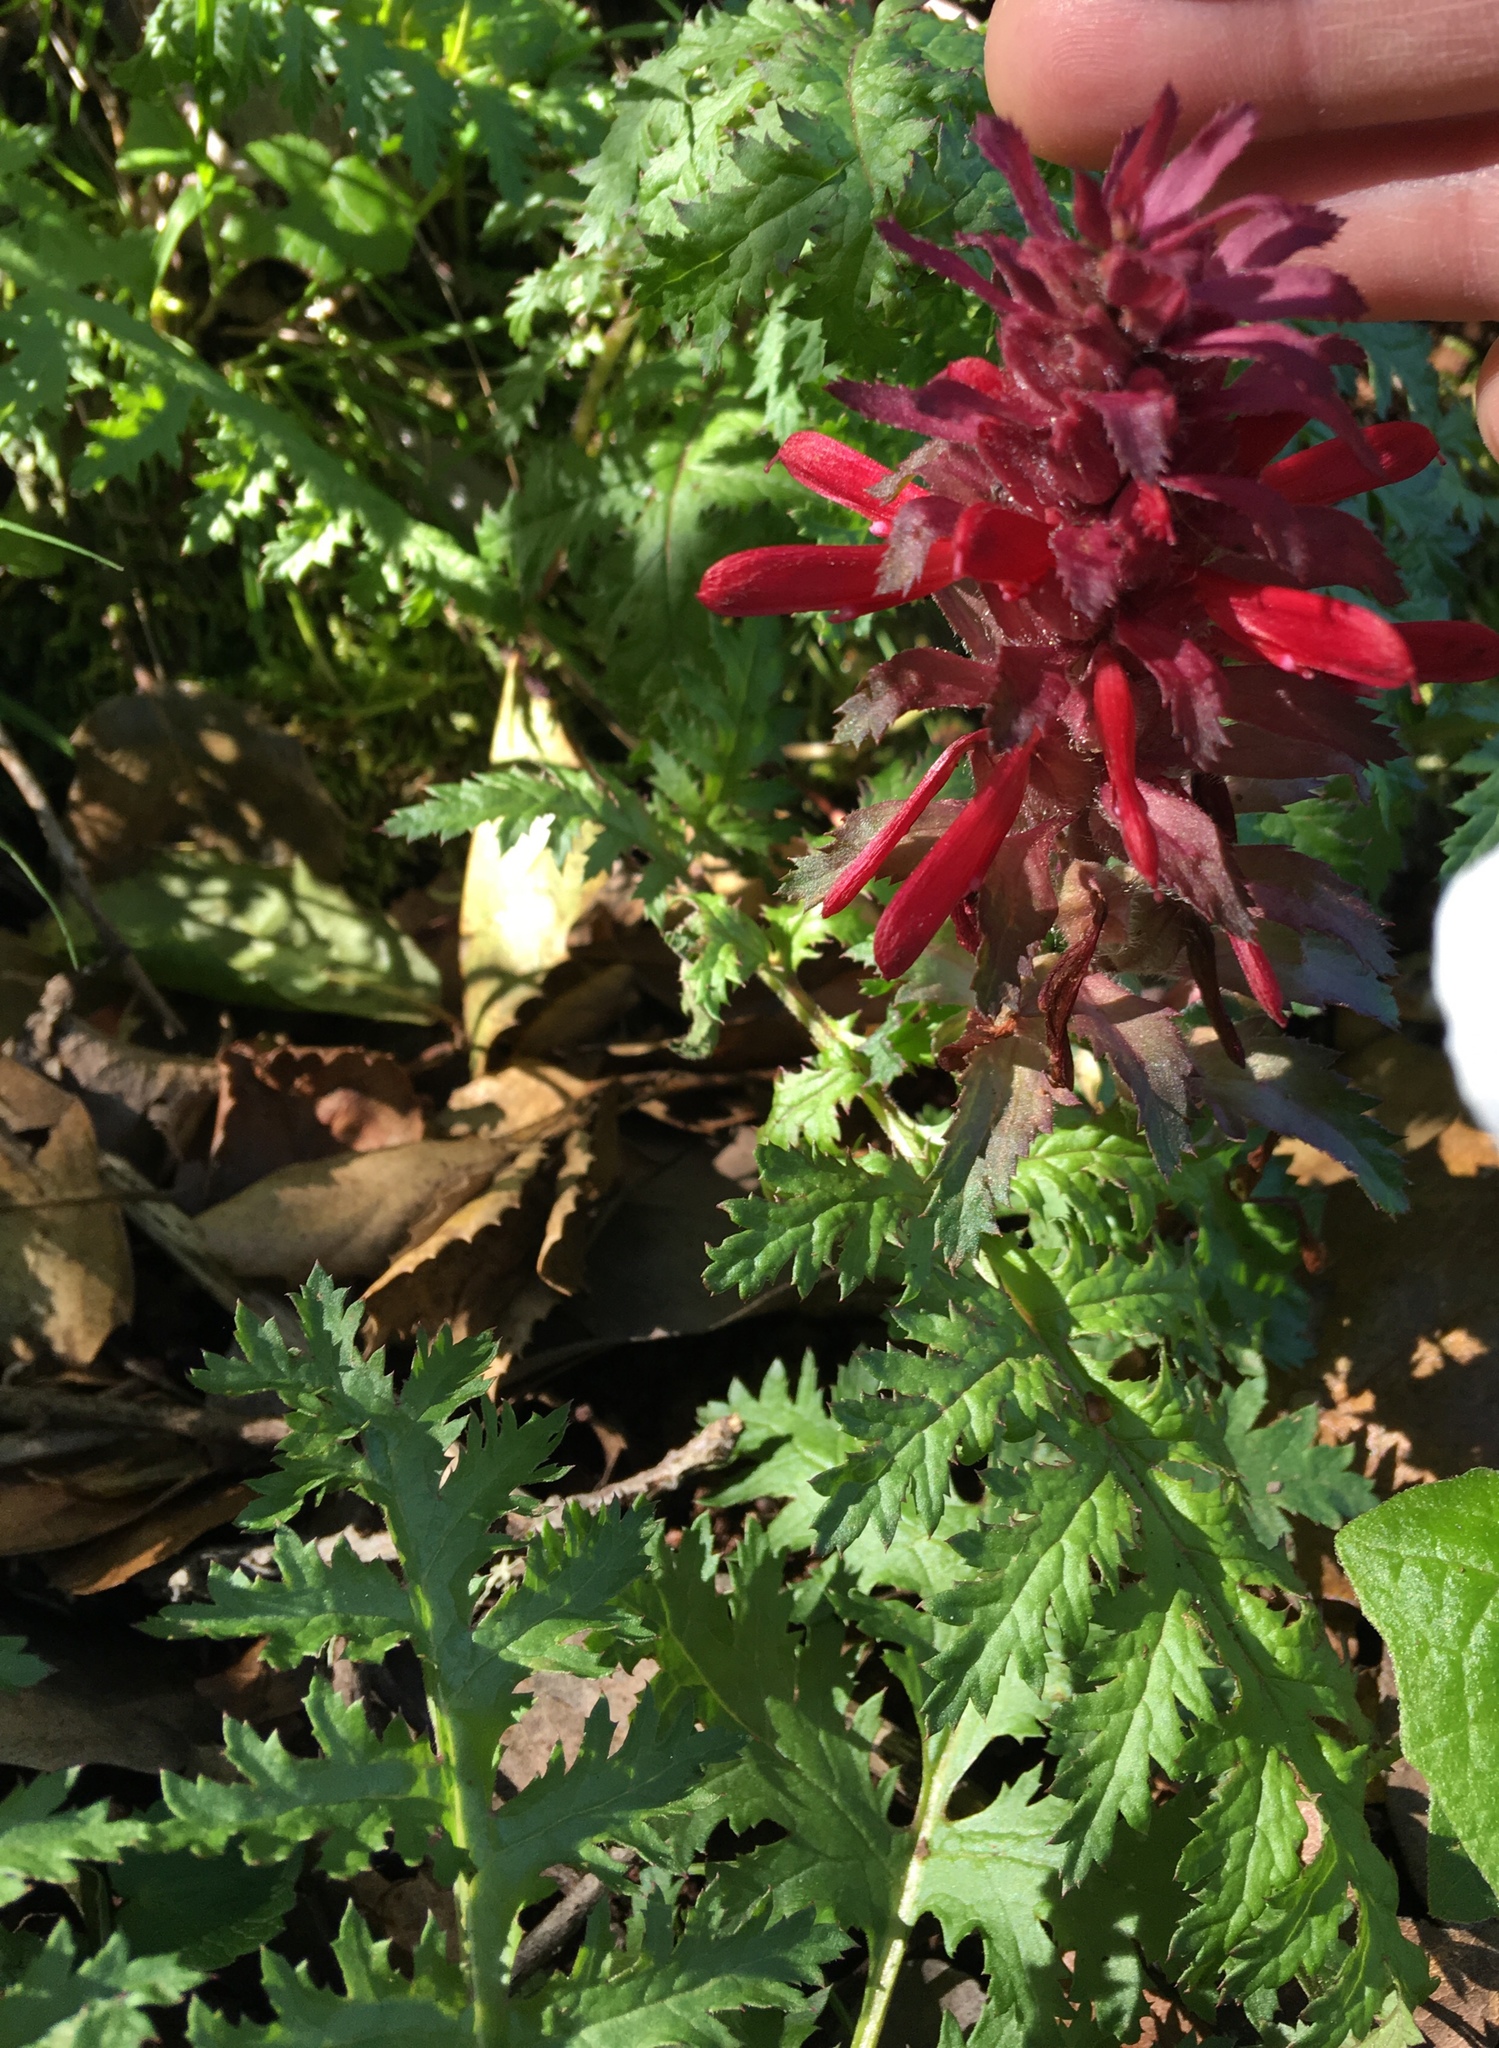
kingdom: Plantae
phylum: Tracheophyta
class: Magnoliopsida
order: Lamiales
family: Orobanchaceae
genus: Pedicularis
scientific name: Pedicularis densiflora
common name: Indian warrior
